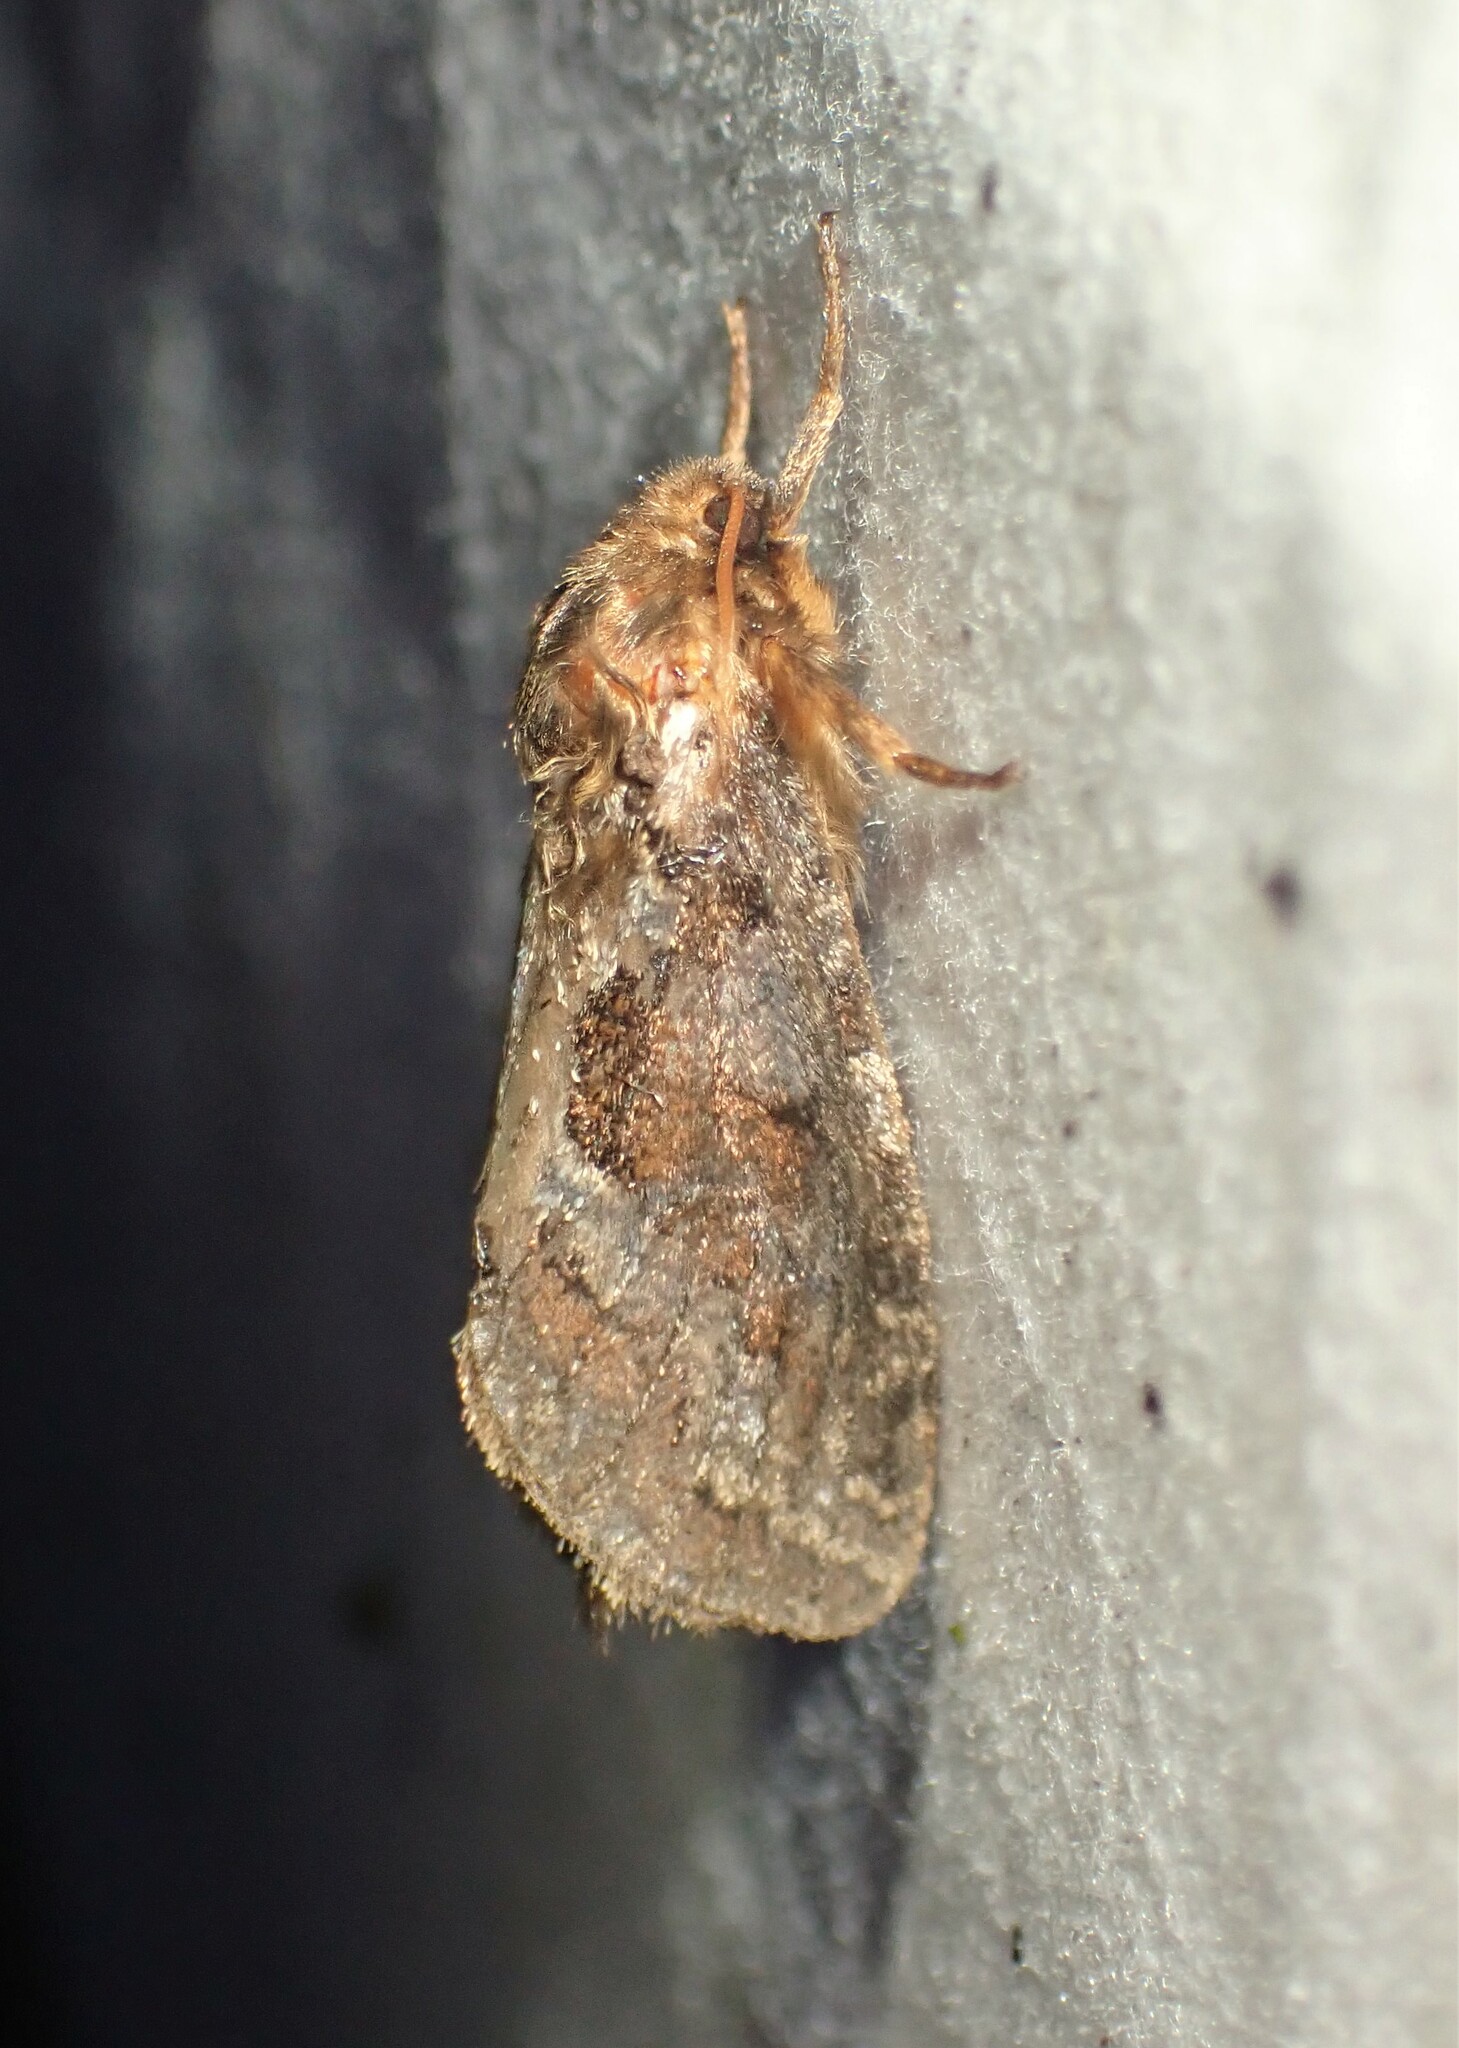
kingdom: Animalia
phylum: Arthropoda
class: Insecta
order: Lepidoptera
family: Hepialidae
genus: Korscheltellus
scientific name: Korscheltellus gracilis
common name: Conifer swift moth
